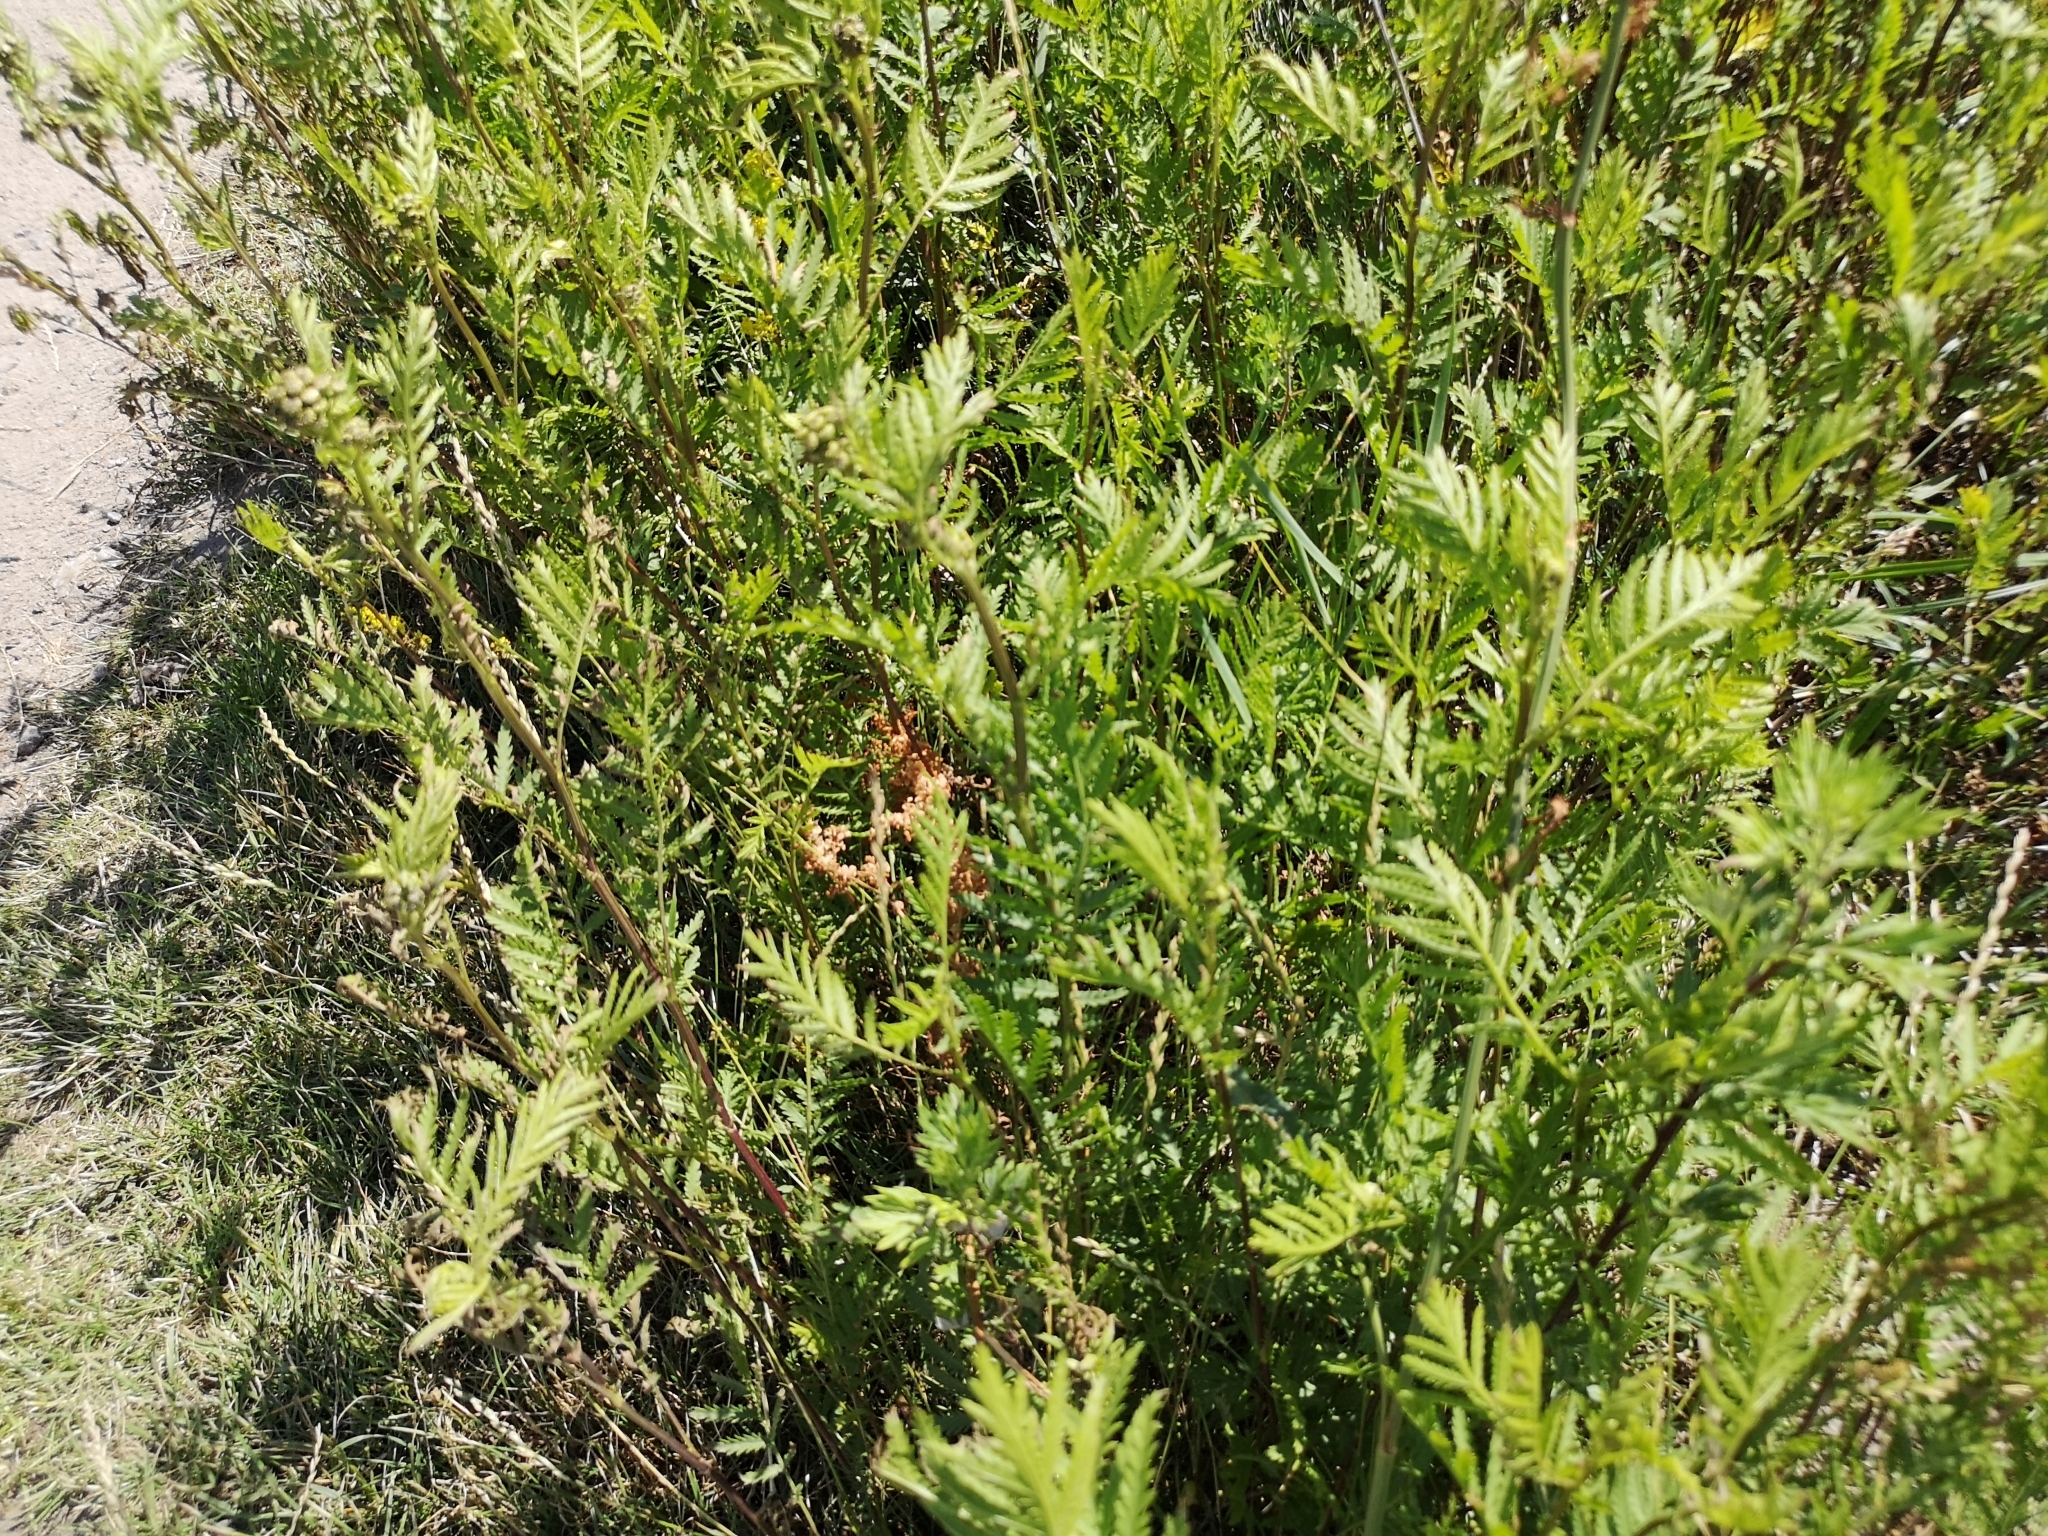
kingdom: Plantae
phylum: Tracheophyta
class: Magnoliopsida
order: Asterales
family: Asteraceae
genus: Tanacetum
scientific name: Tanacetum vulgare
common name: Common tansy
